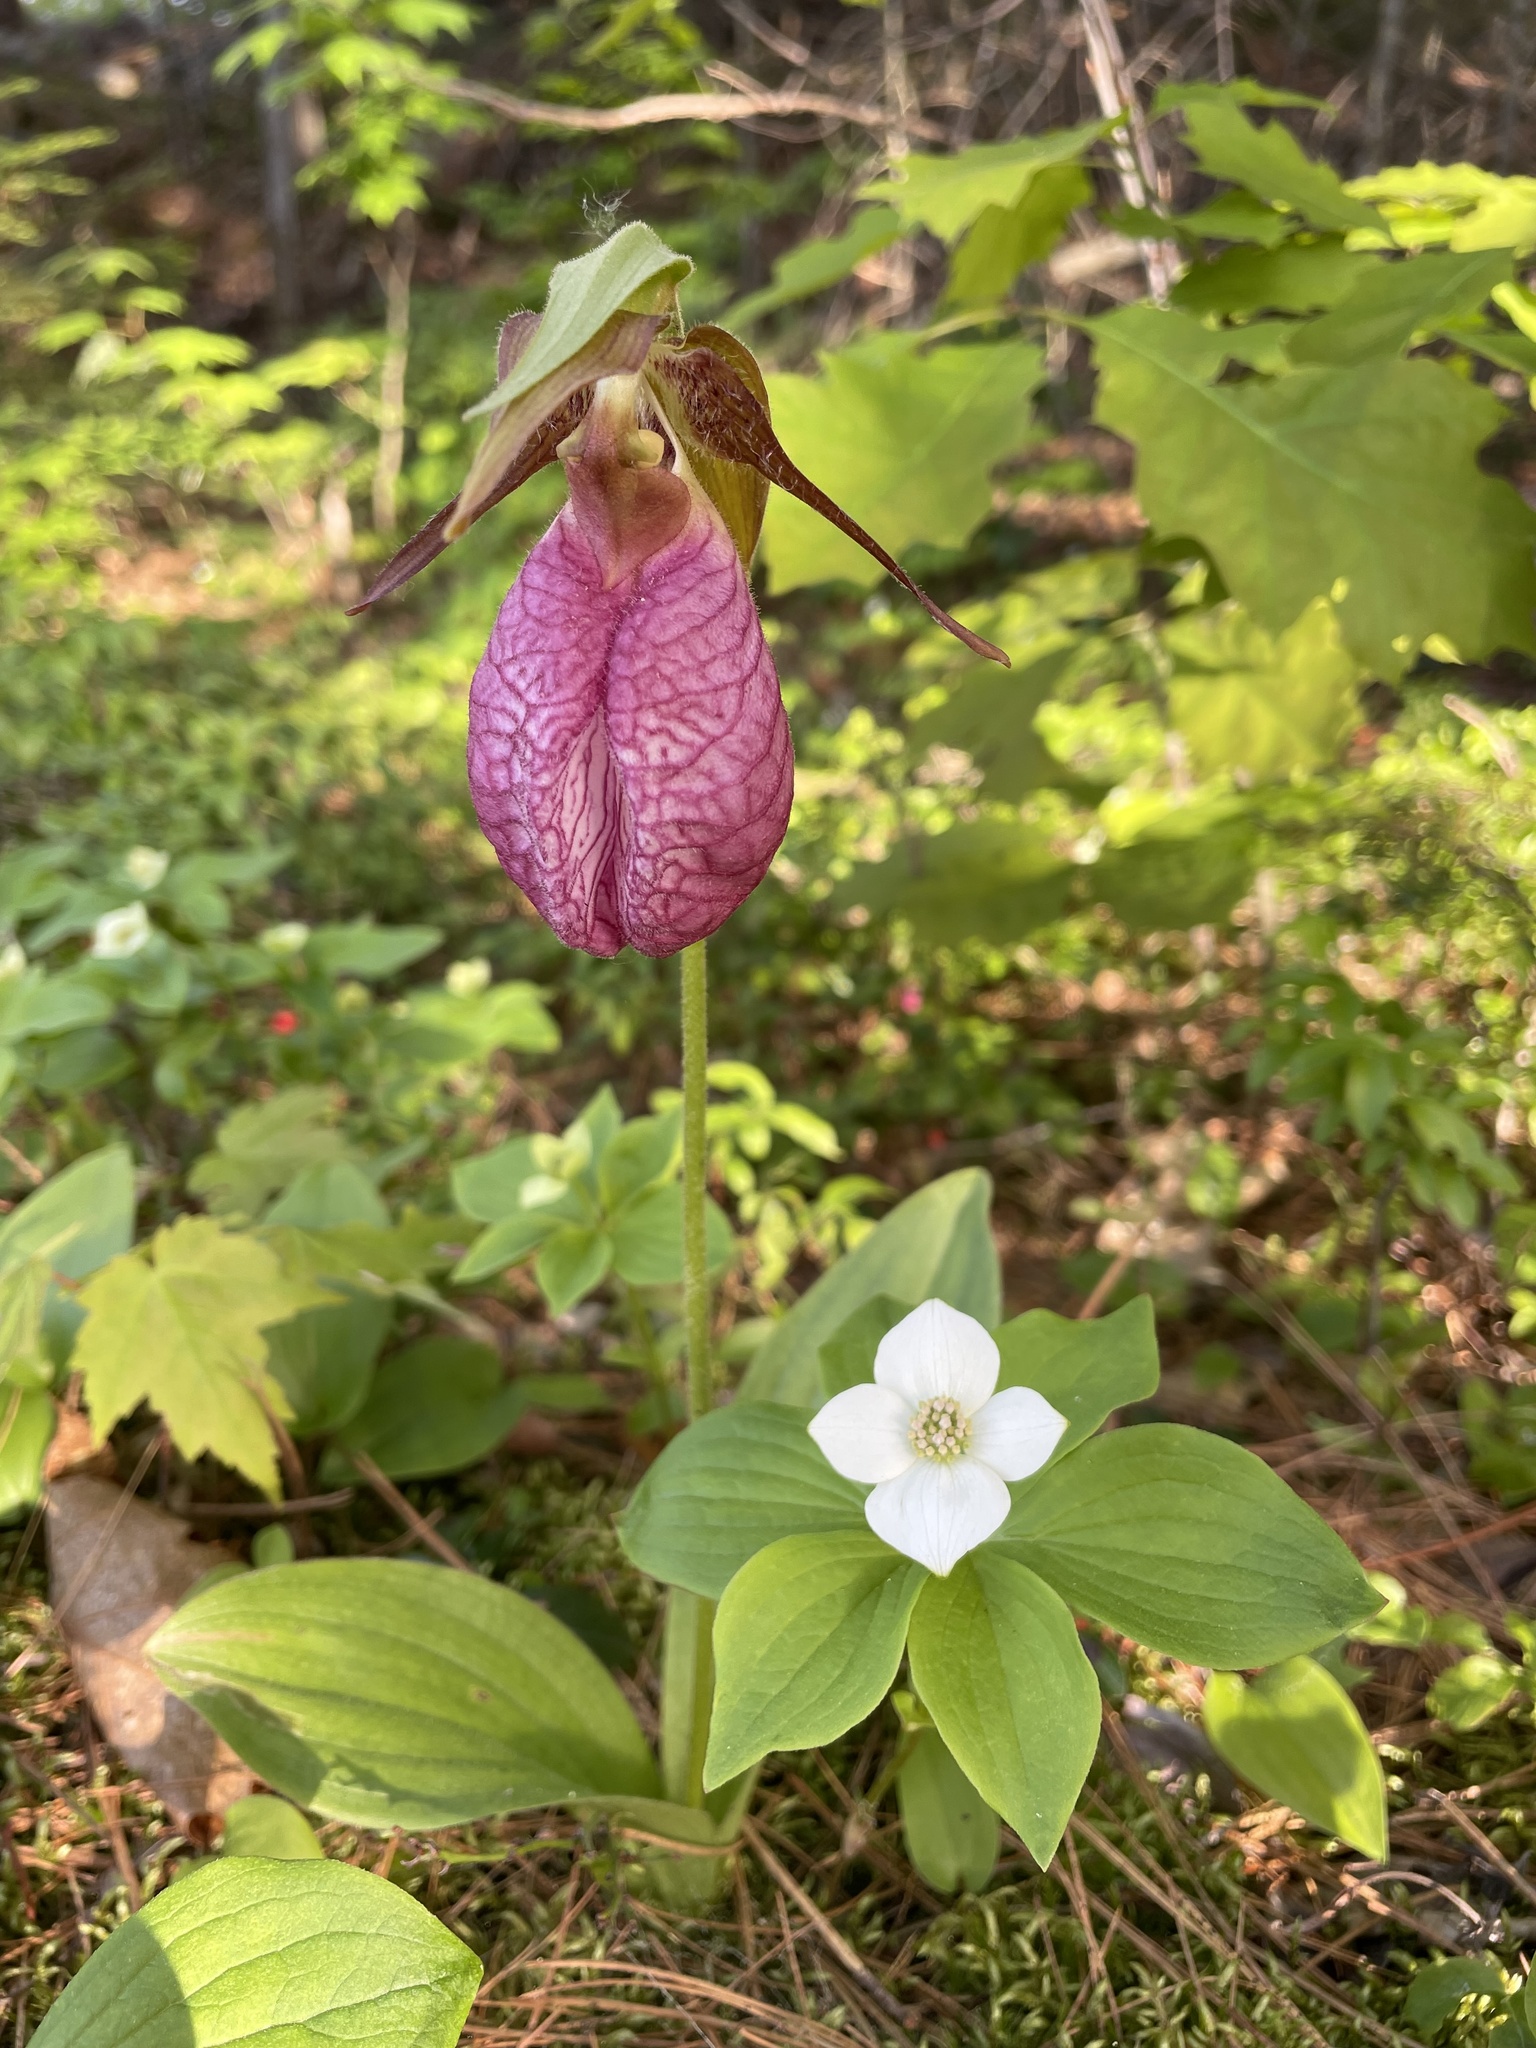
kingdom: Plantae
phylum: Tracheophyta
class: Liliopsida
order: Asparagales
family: Orchidaceae
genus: Cypripedium
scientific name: Cypripedium acaule
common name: Pink lady's-slipper
